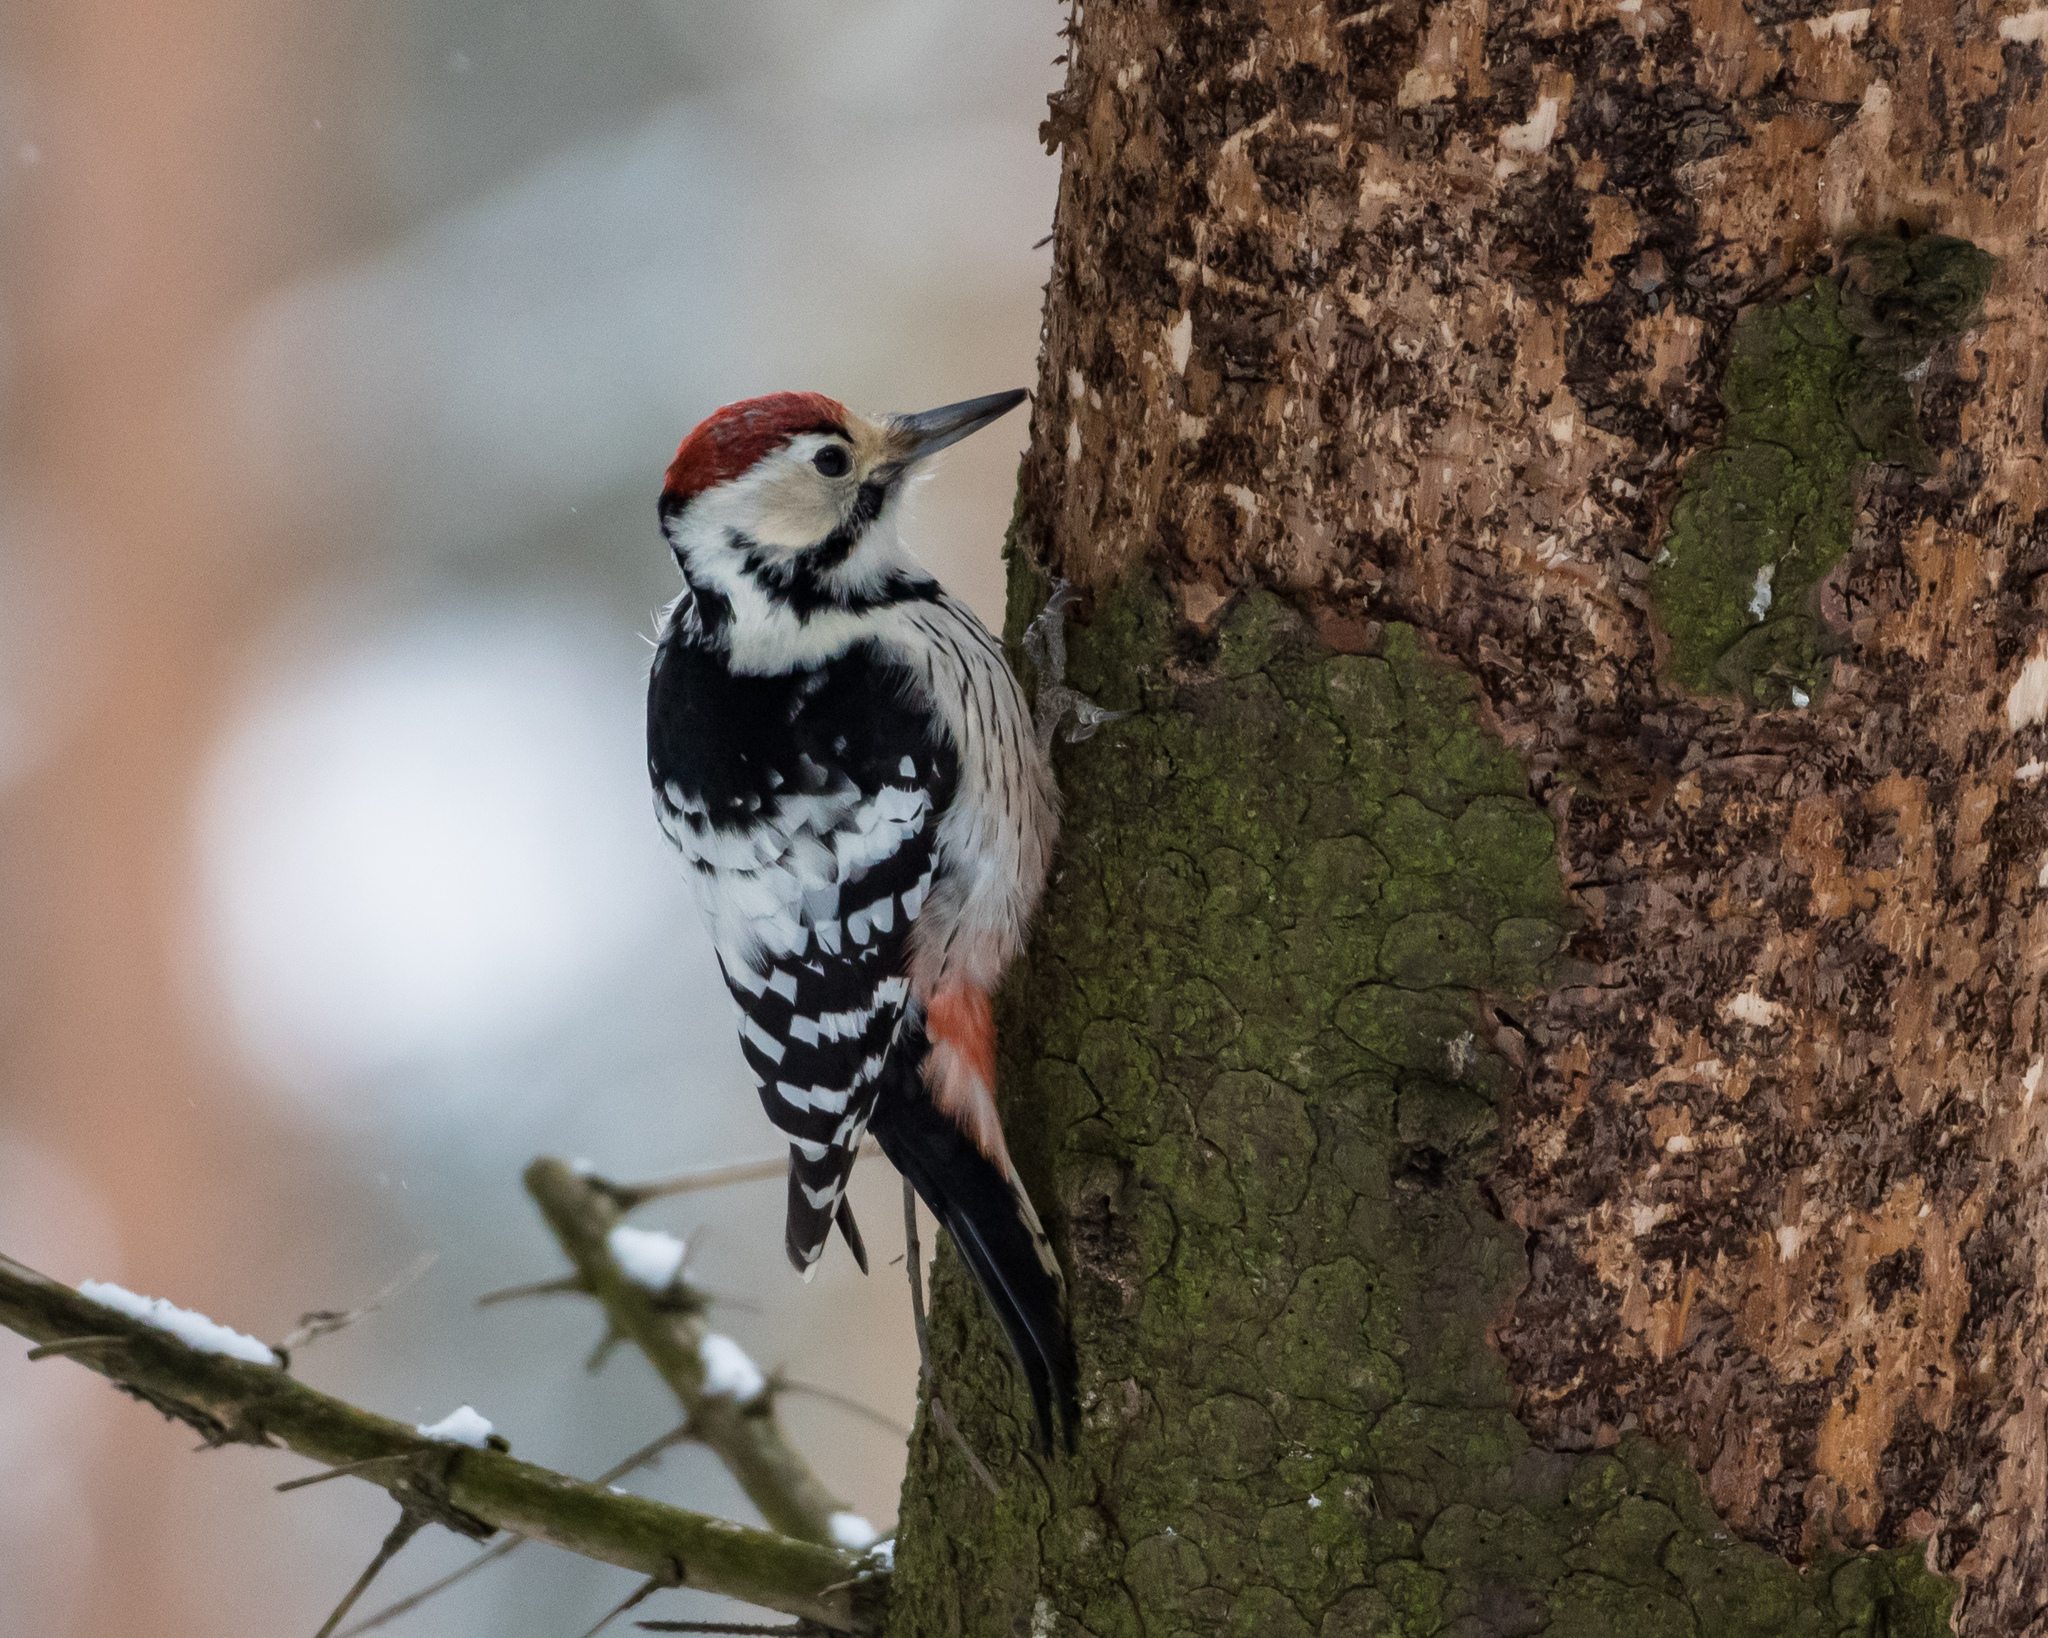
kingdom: Animalia
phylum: Chordata
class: Aves
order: Piciformes
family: Picidae
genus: Dendrocopos
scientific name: Dendrocopos leucotos
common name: White-backed woodpecker
